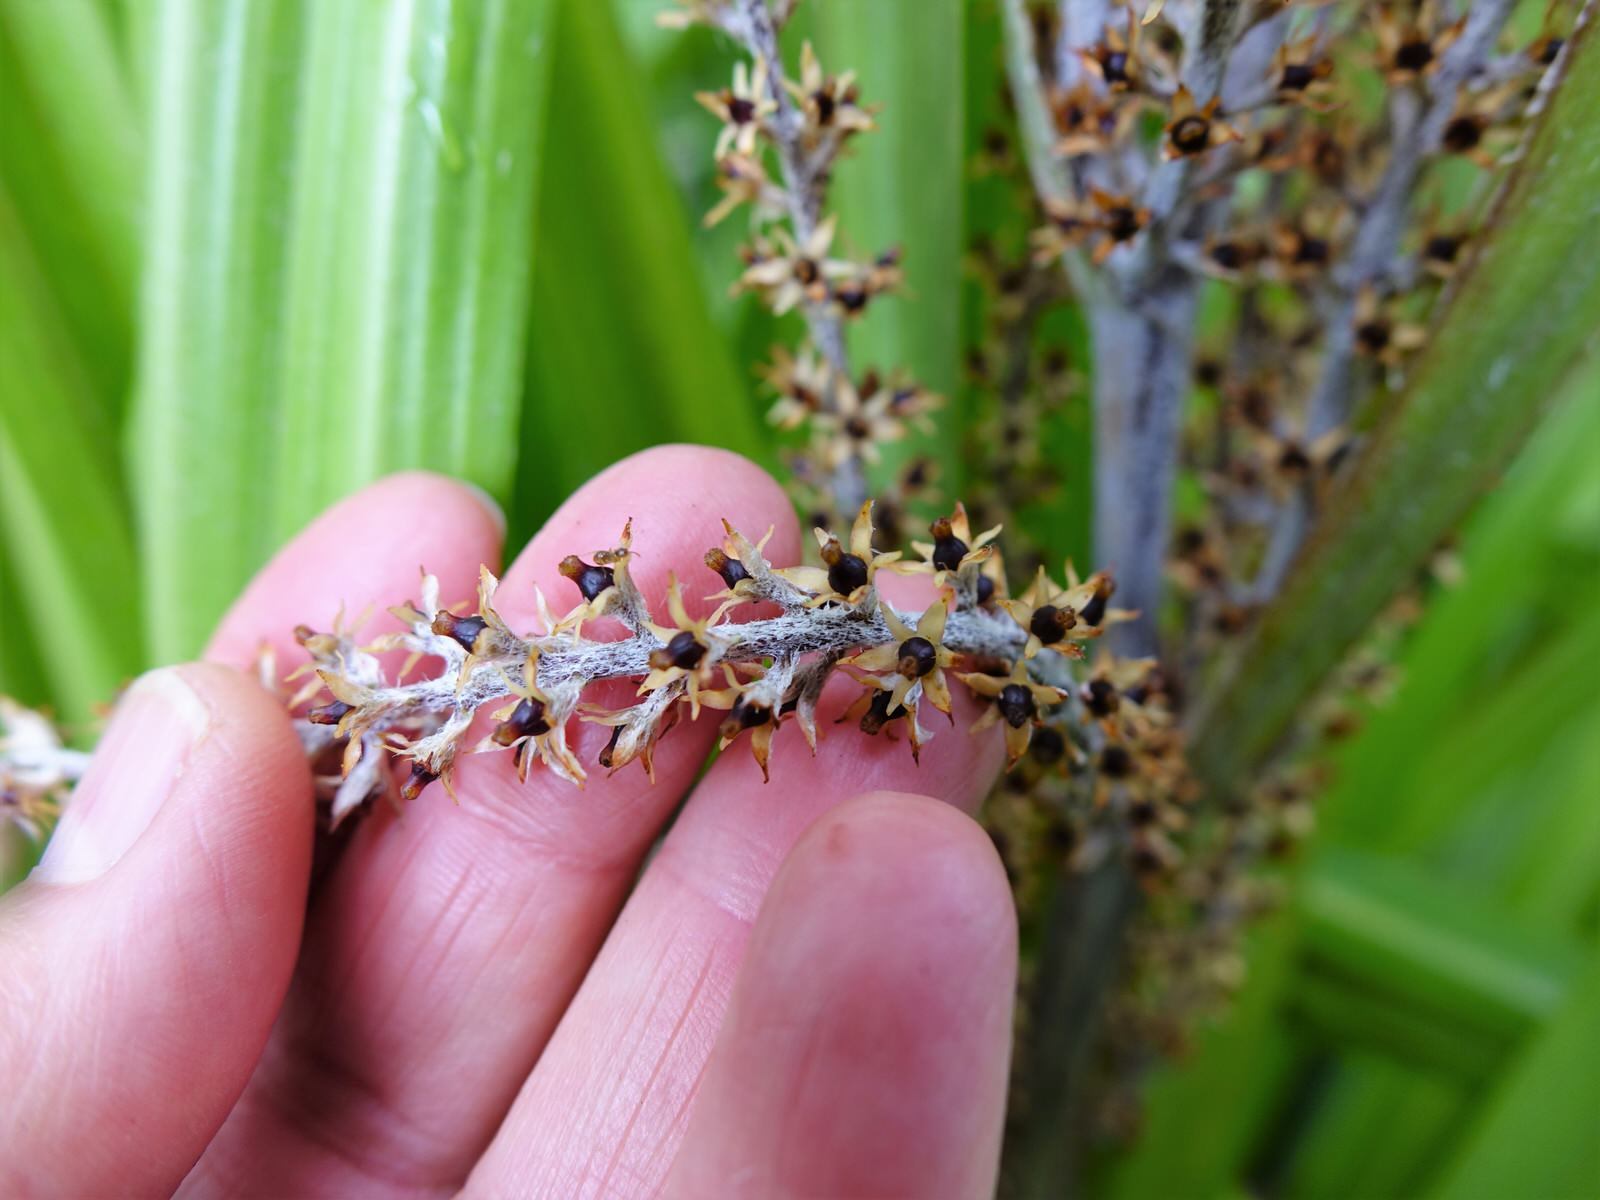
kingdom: Plantae
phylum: Tracheophyta
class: Liliopsida
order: Asparagales
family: Asteliaceae
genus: Astelia
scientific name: Astelia trinervia
